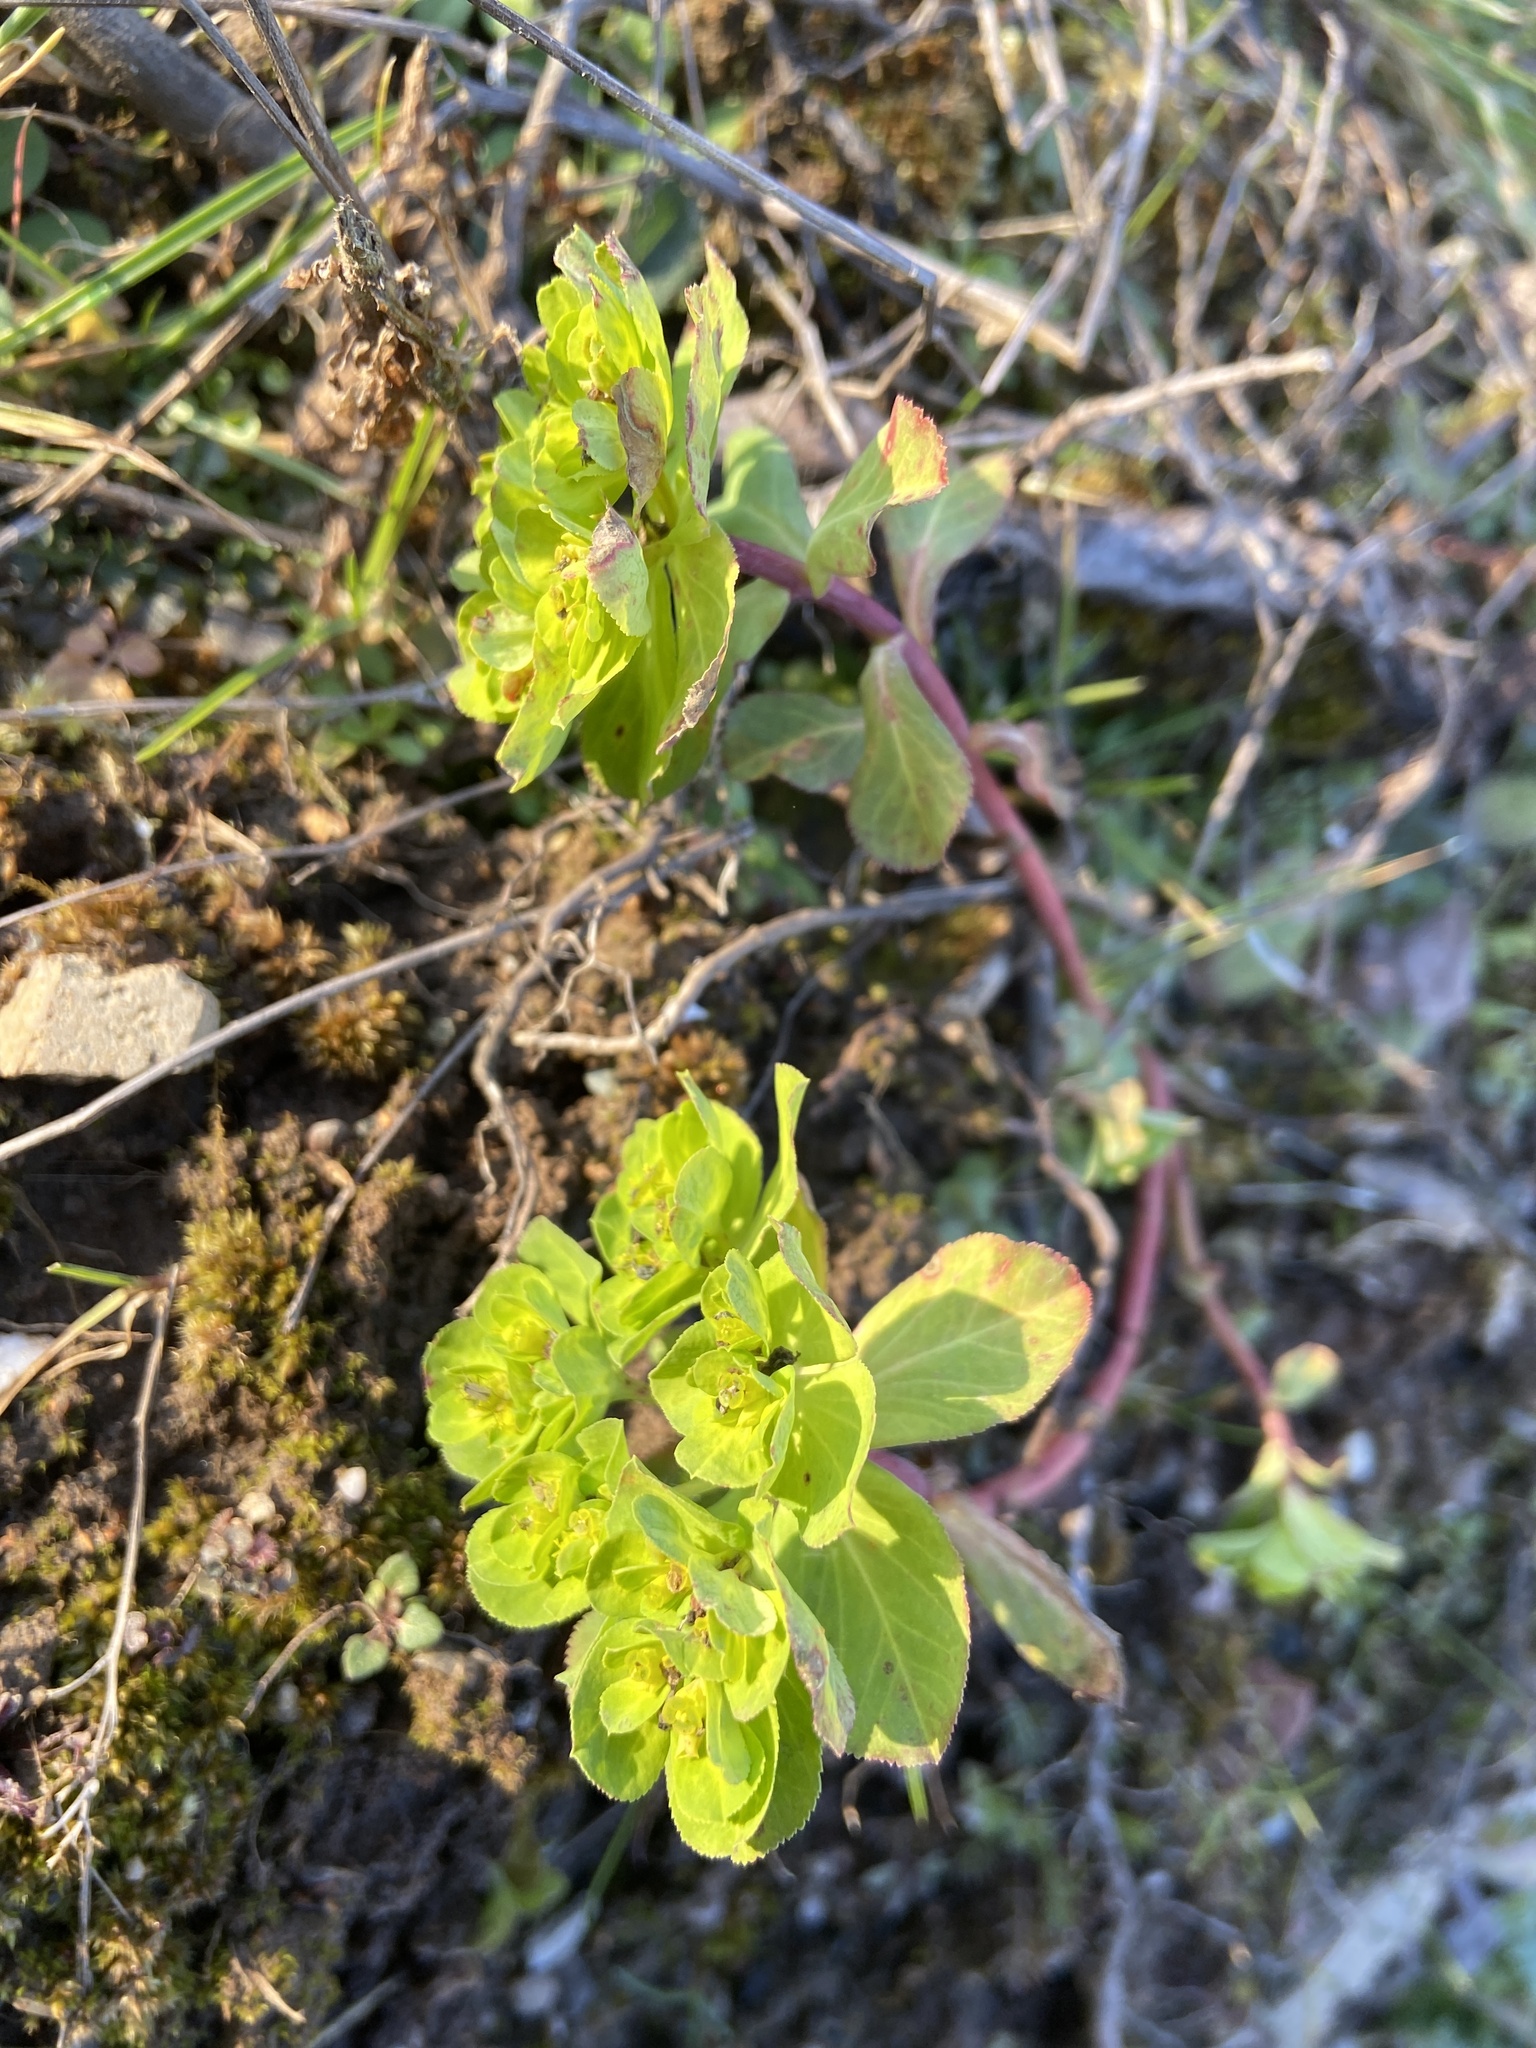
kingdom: Plantae
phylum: Tracheophyta
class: Magnoliopsida
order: Malpighiales
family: Euphorbiaceae
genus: Euphorbia
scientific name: Euphorbia helioscopia
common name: Sun spurge
